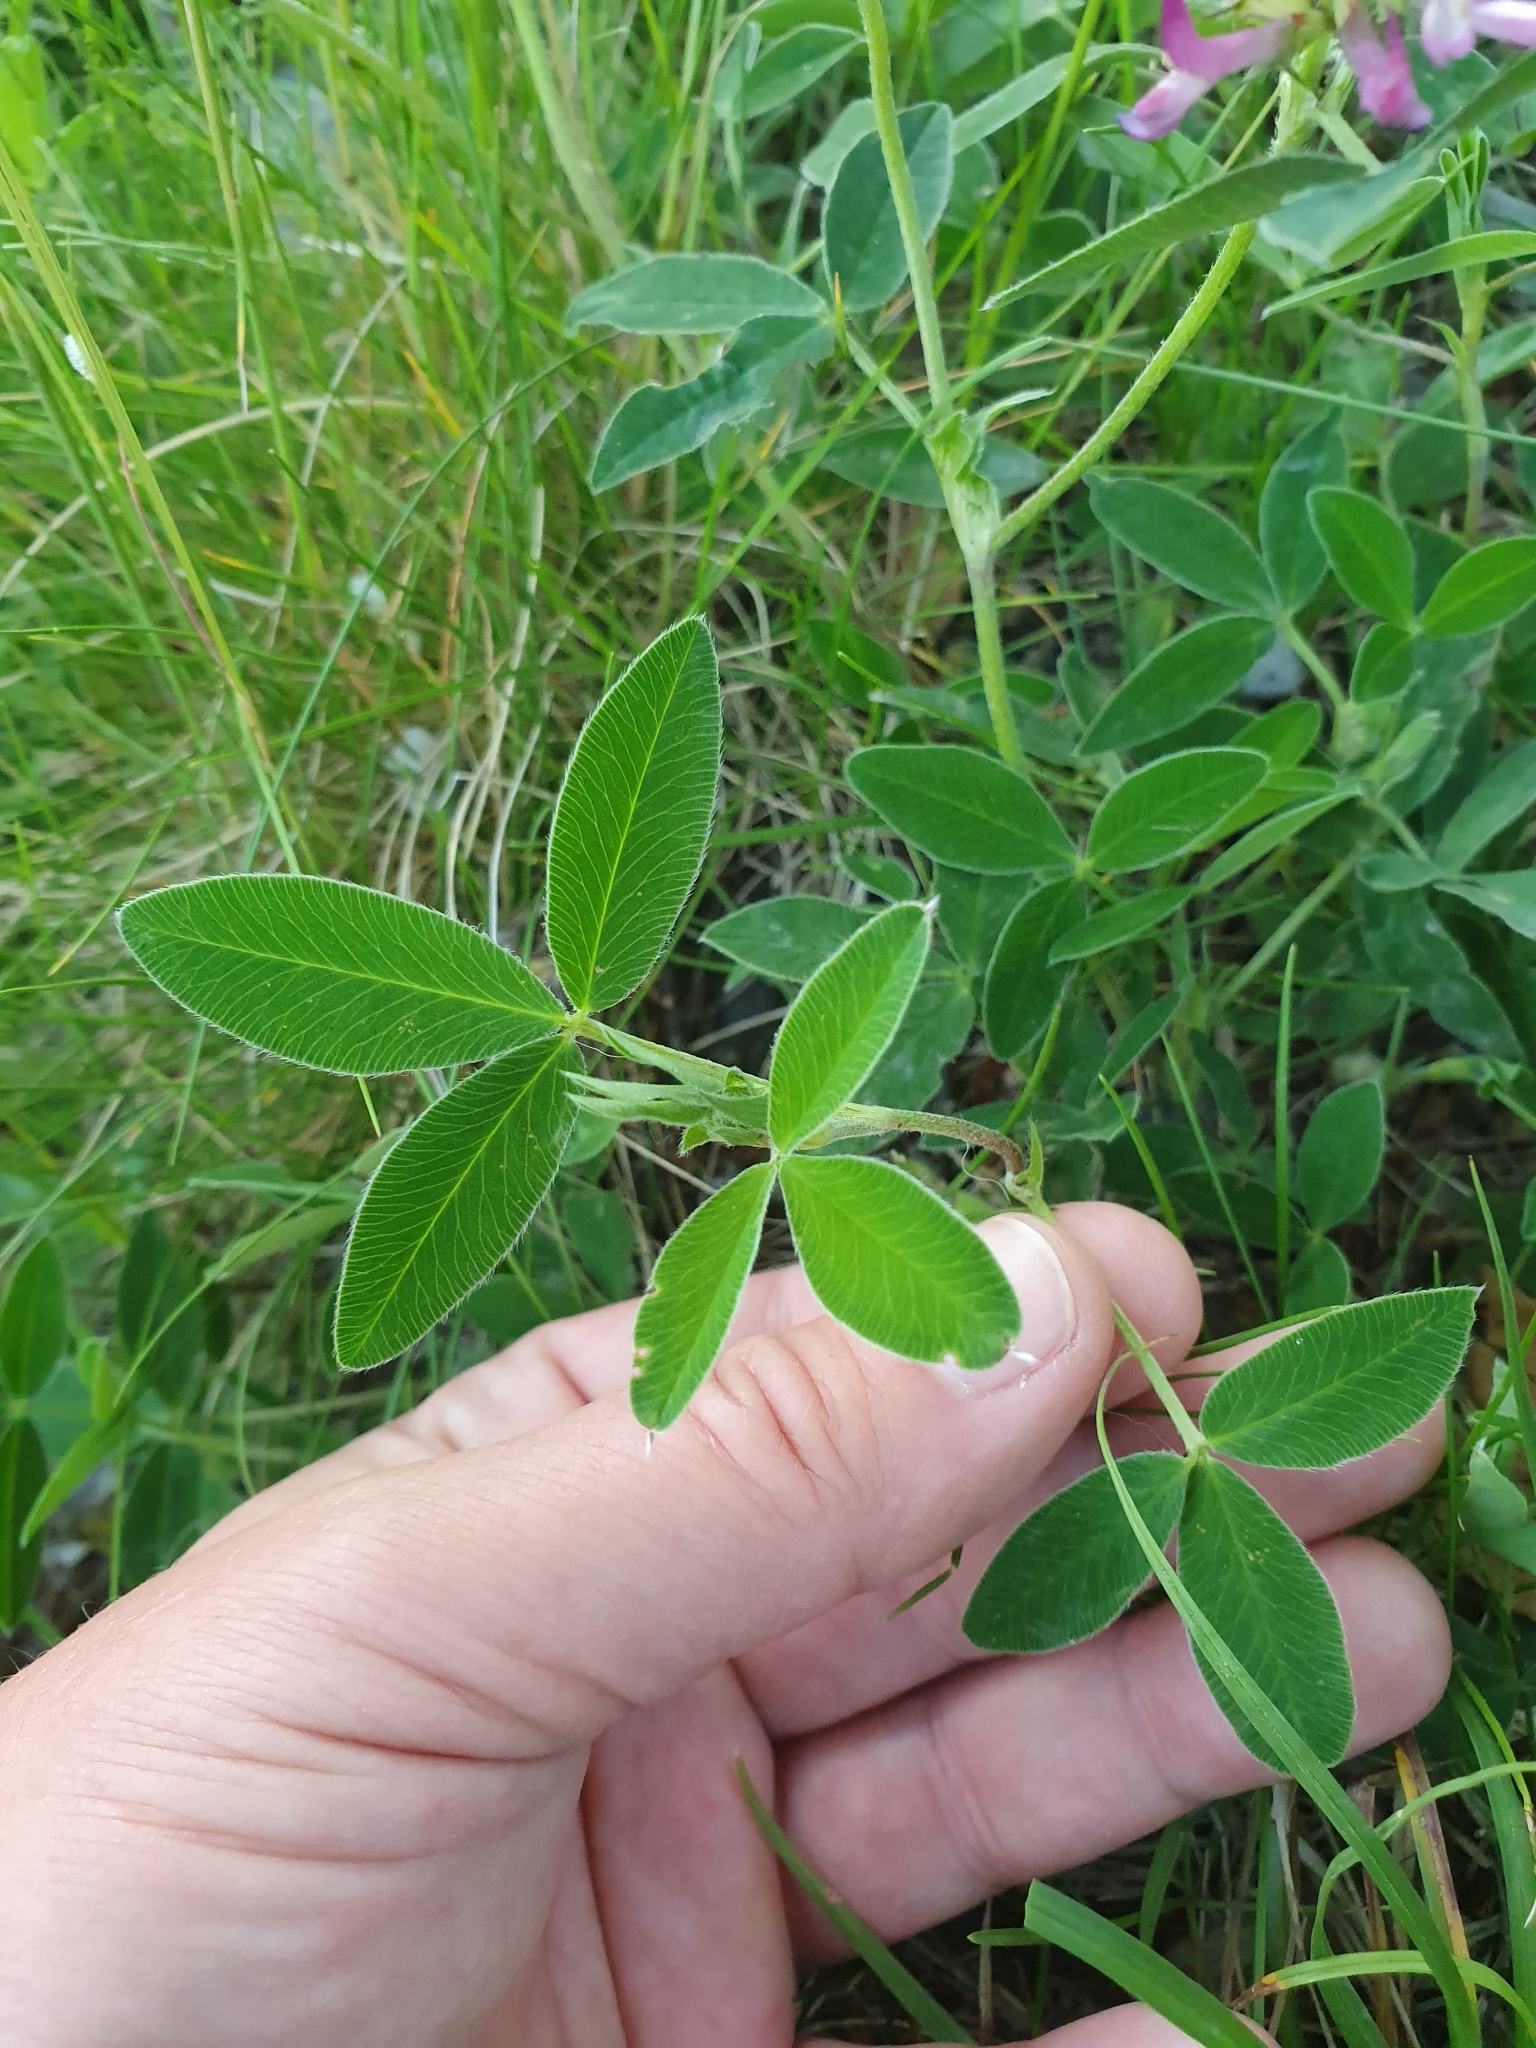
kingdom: Plantae
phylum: Tracheophyta
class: Magnoliopsida
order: Fabales
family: Fabaceae
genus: Trifolium
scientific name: Trifolium medium
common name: Zigzag clover
